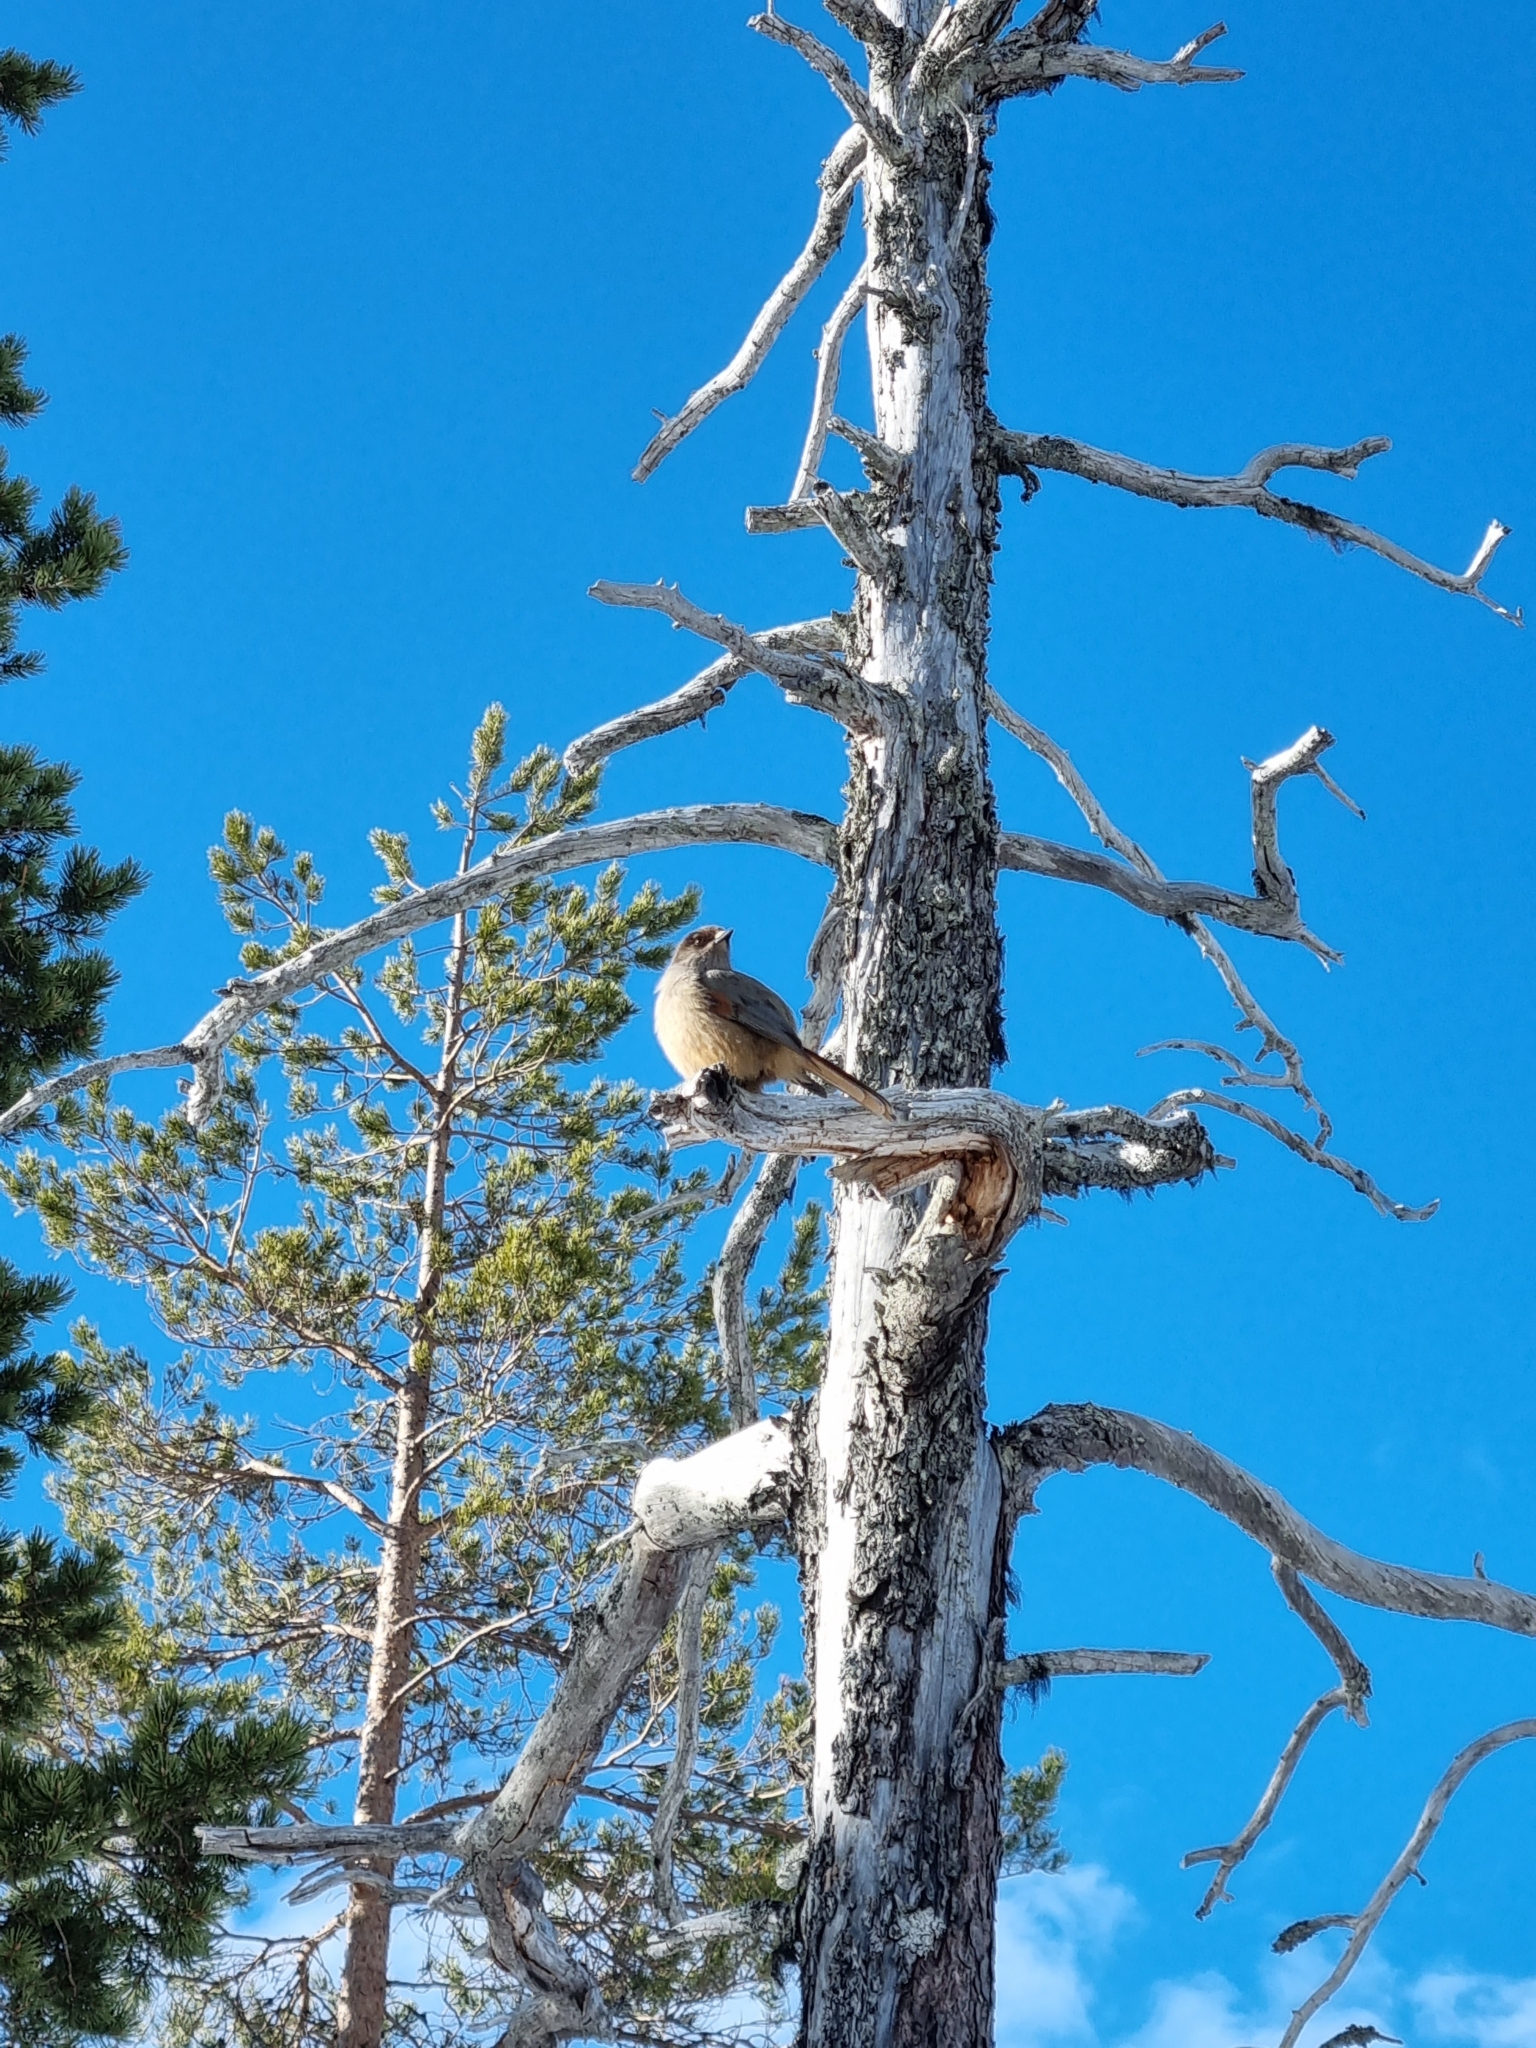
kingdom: Animalia
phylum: Chordata
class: Aves
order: Passeriformes
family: Corvidae
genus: Perisoreus
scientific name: Perisoreus infaustus
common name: Siberian jay
